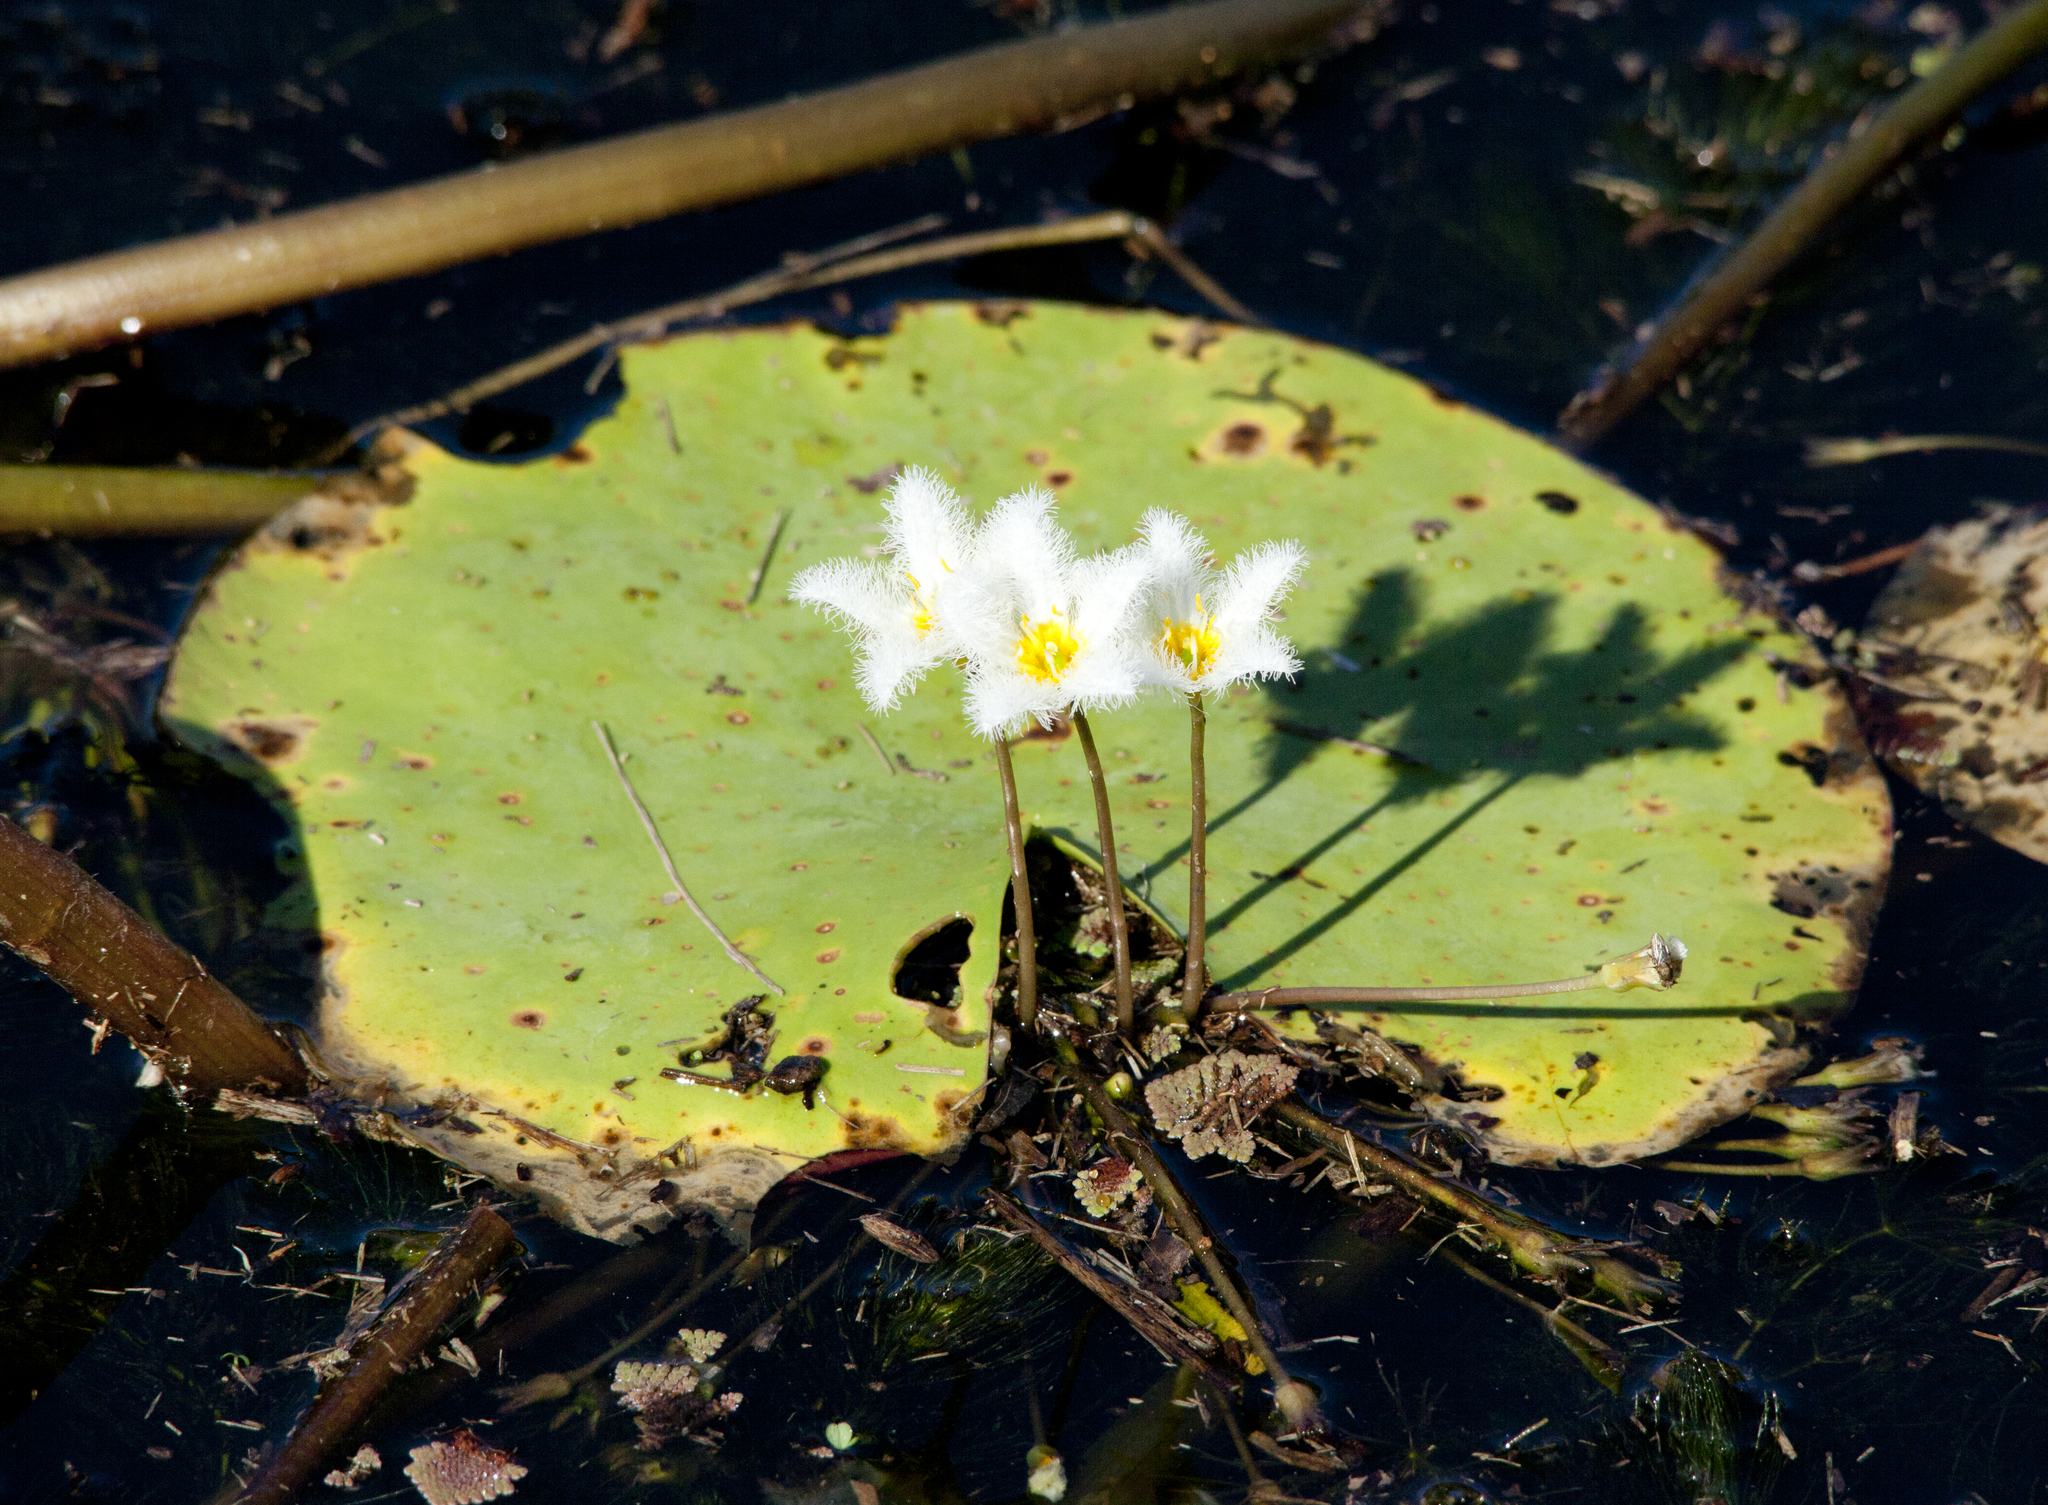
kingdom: Plantae
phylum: Tracheophyta
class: Magnoliopsida
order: Asterales
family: Menyanthaceae
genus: Nymphoides
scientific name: Nymphoides indica
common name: Water-snowflake
